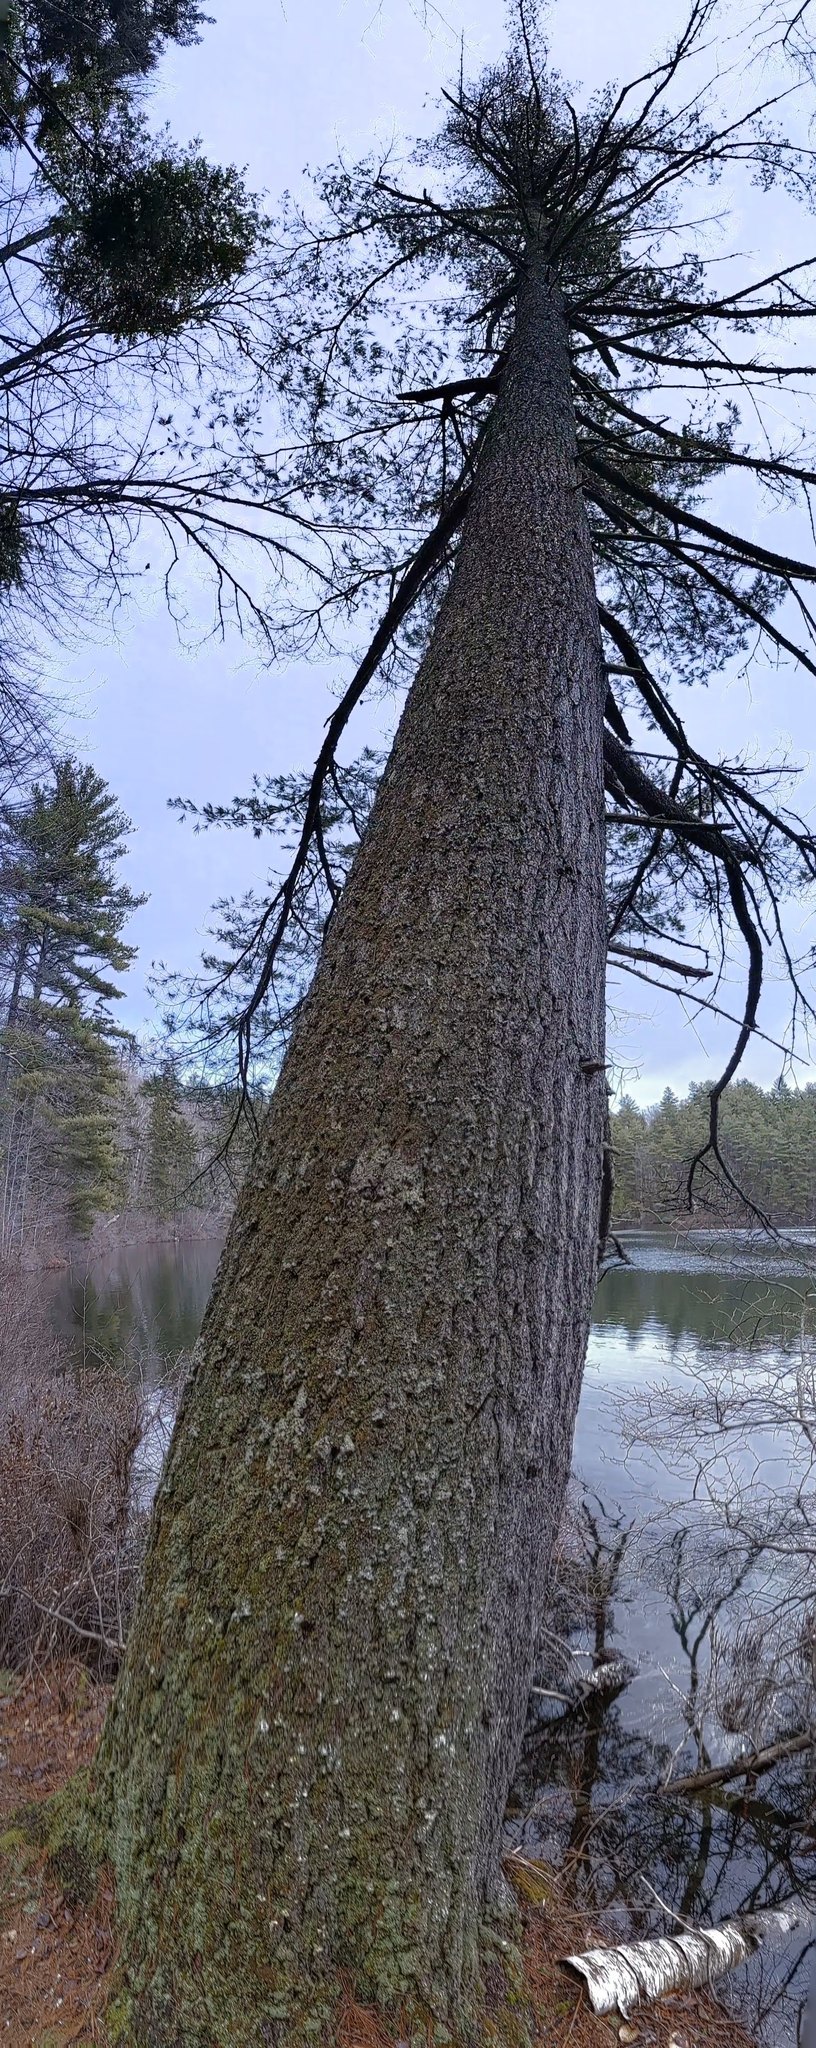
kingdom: Plantae
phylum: Tracheophyta
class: Pinopsida
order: Pinales
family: Pinaceae
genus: Pinus
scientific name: Pinus strobus
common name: Weymouth pine
